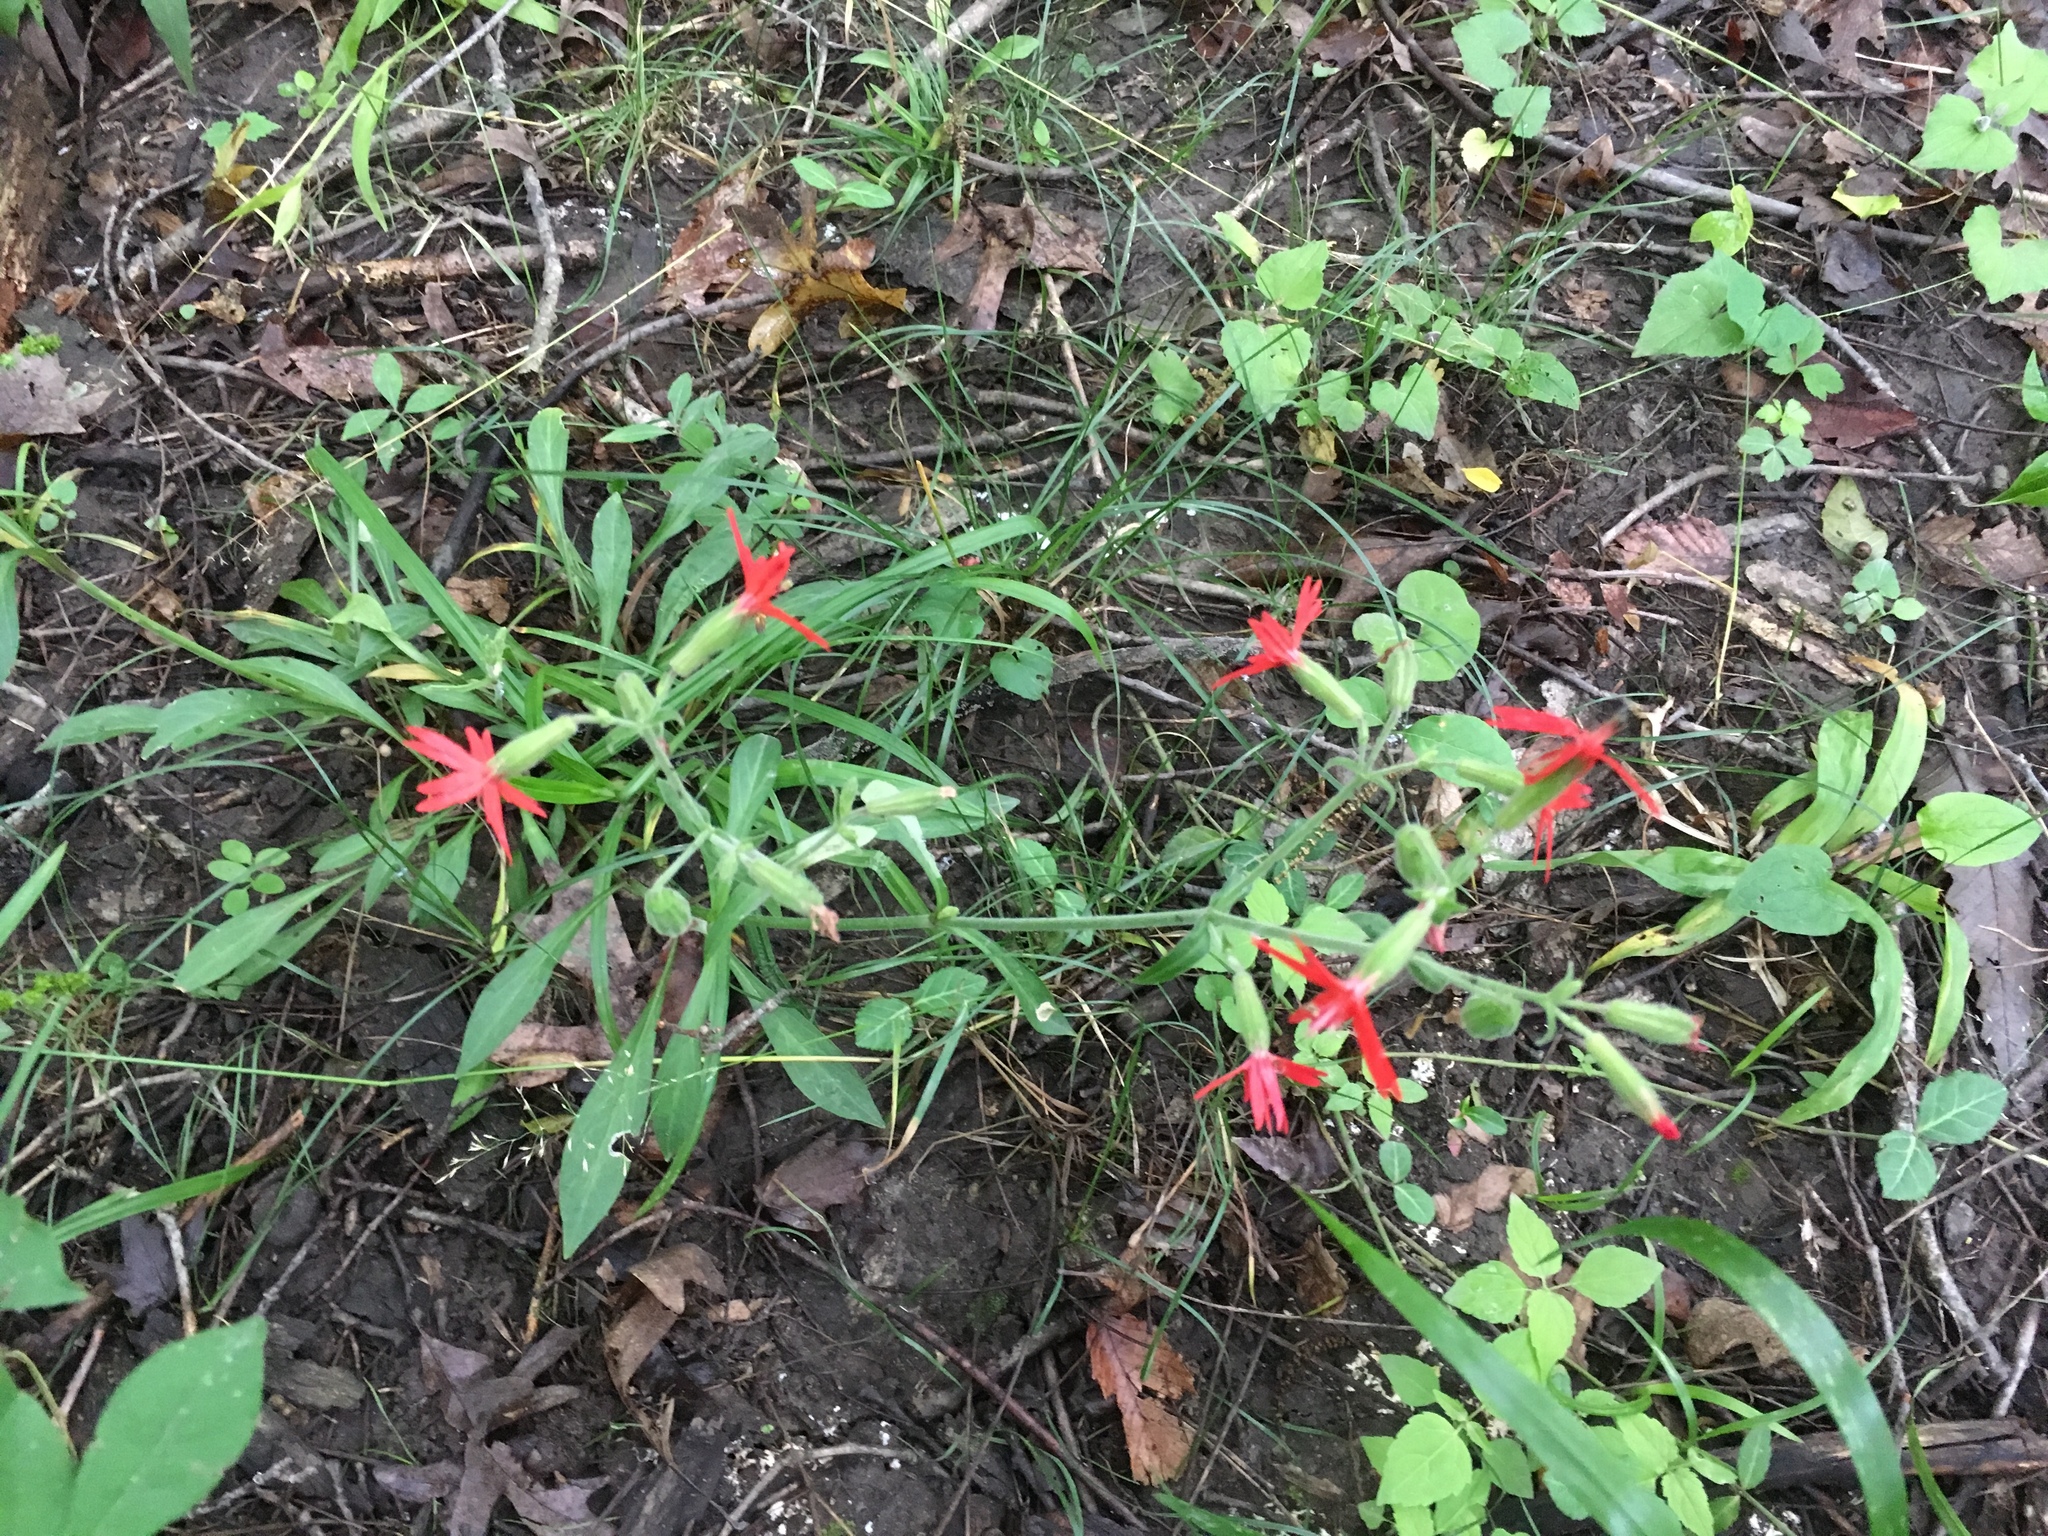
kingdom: Plantae
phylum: Tracheophyta
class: Magnoliopsida
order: Caryophyllales
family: Caryophyllaceae
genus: Silene
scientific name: Silene virginica
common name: Fire-pink
